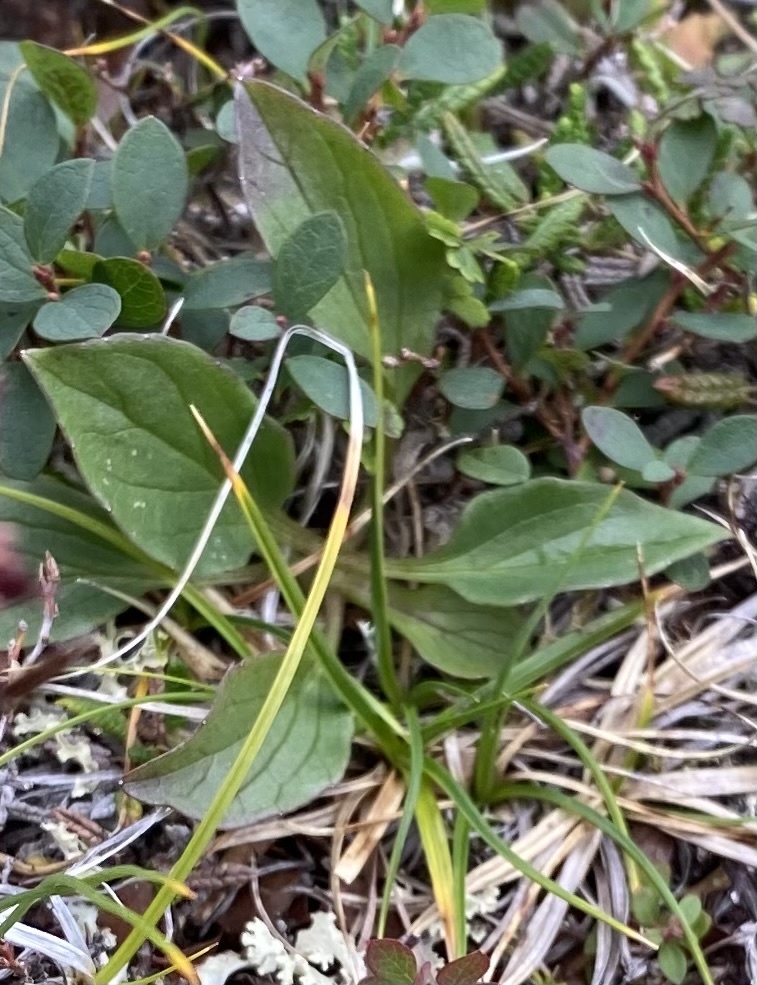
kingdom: Plantae
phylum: Tracheophyta
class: Magnoliopsida
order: Dipsacales
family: Caprifoliaceae
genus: Valeriana
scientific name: Valeriana capitata
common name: Capitate valerian
